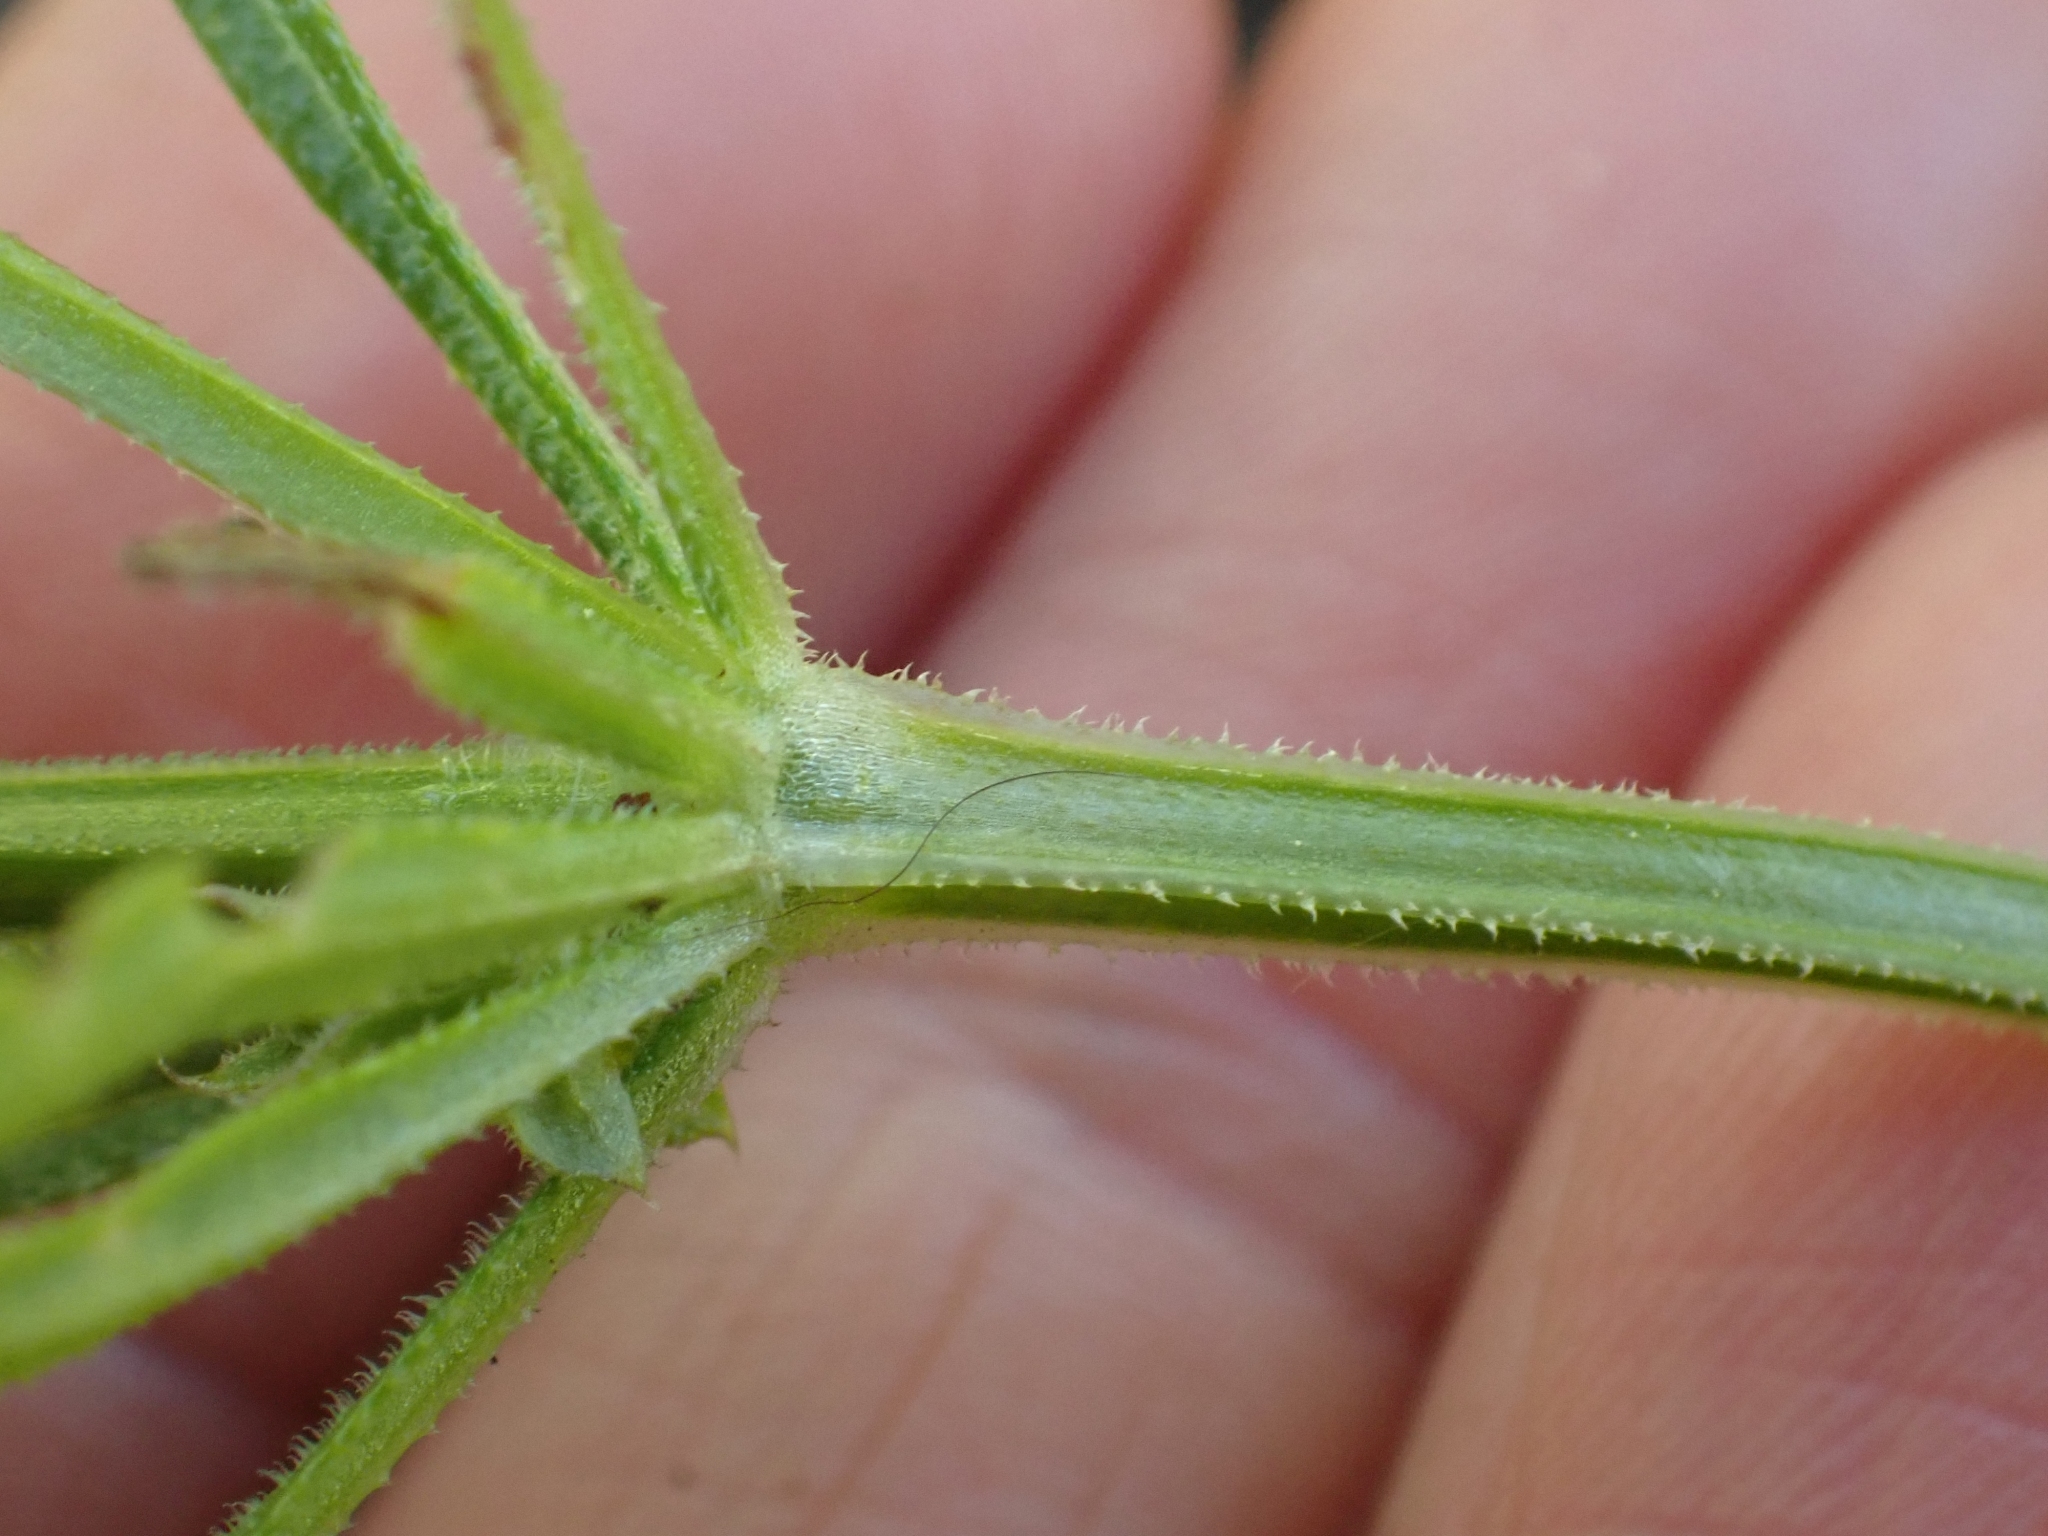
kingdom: Plantae
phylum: Tracheophyta
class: Magnoliopsida
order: Gentianales
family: Rubiaceae
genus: Galium
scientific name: Galium aparine
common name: Cleavers
